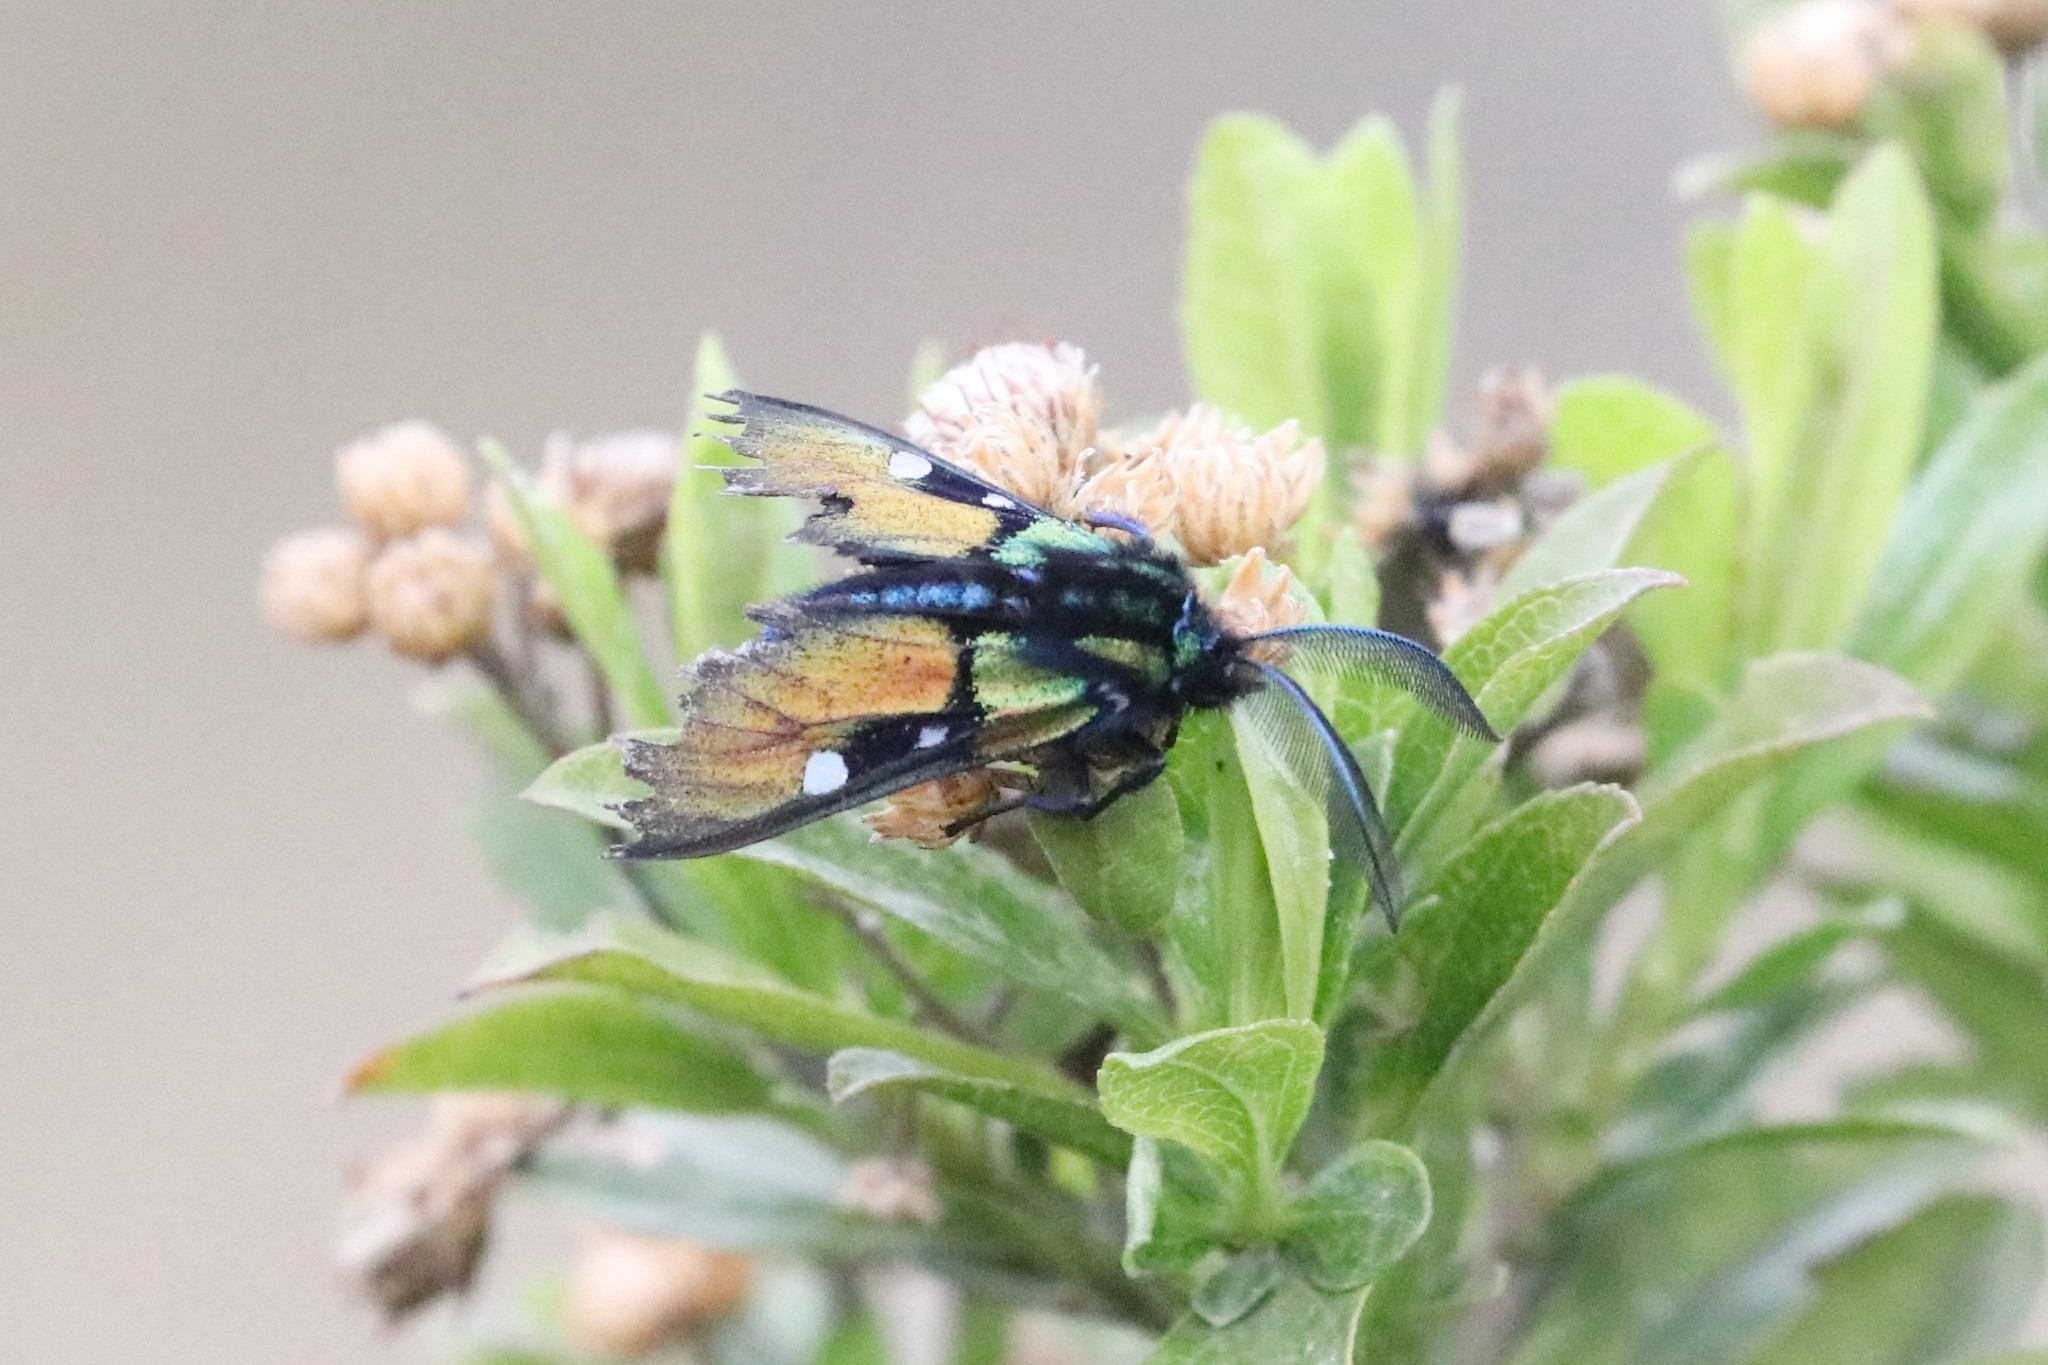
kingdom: Animalia
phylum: Arthropoda
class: Insecta
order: Lepidoptera
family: Erebidae
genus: Chrysocale
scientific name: Chrysocale ignita
